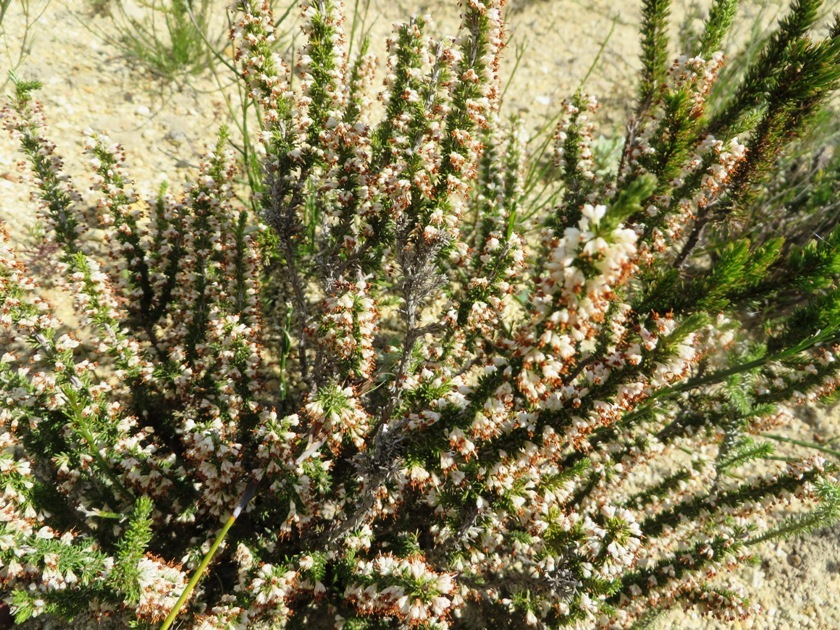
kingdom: Plantae
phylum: Tracheophyta
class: Magnoliopsida
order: Ericales
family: Ericaceae
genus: Erica
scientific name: Erica imbricata
